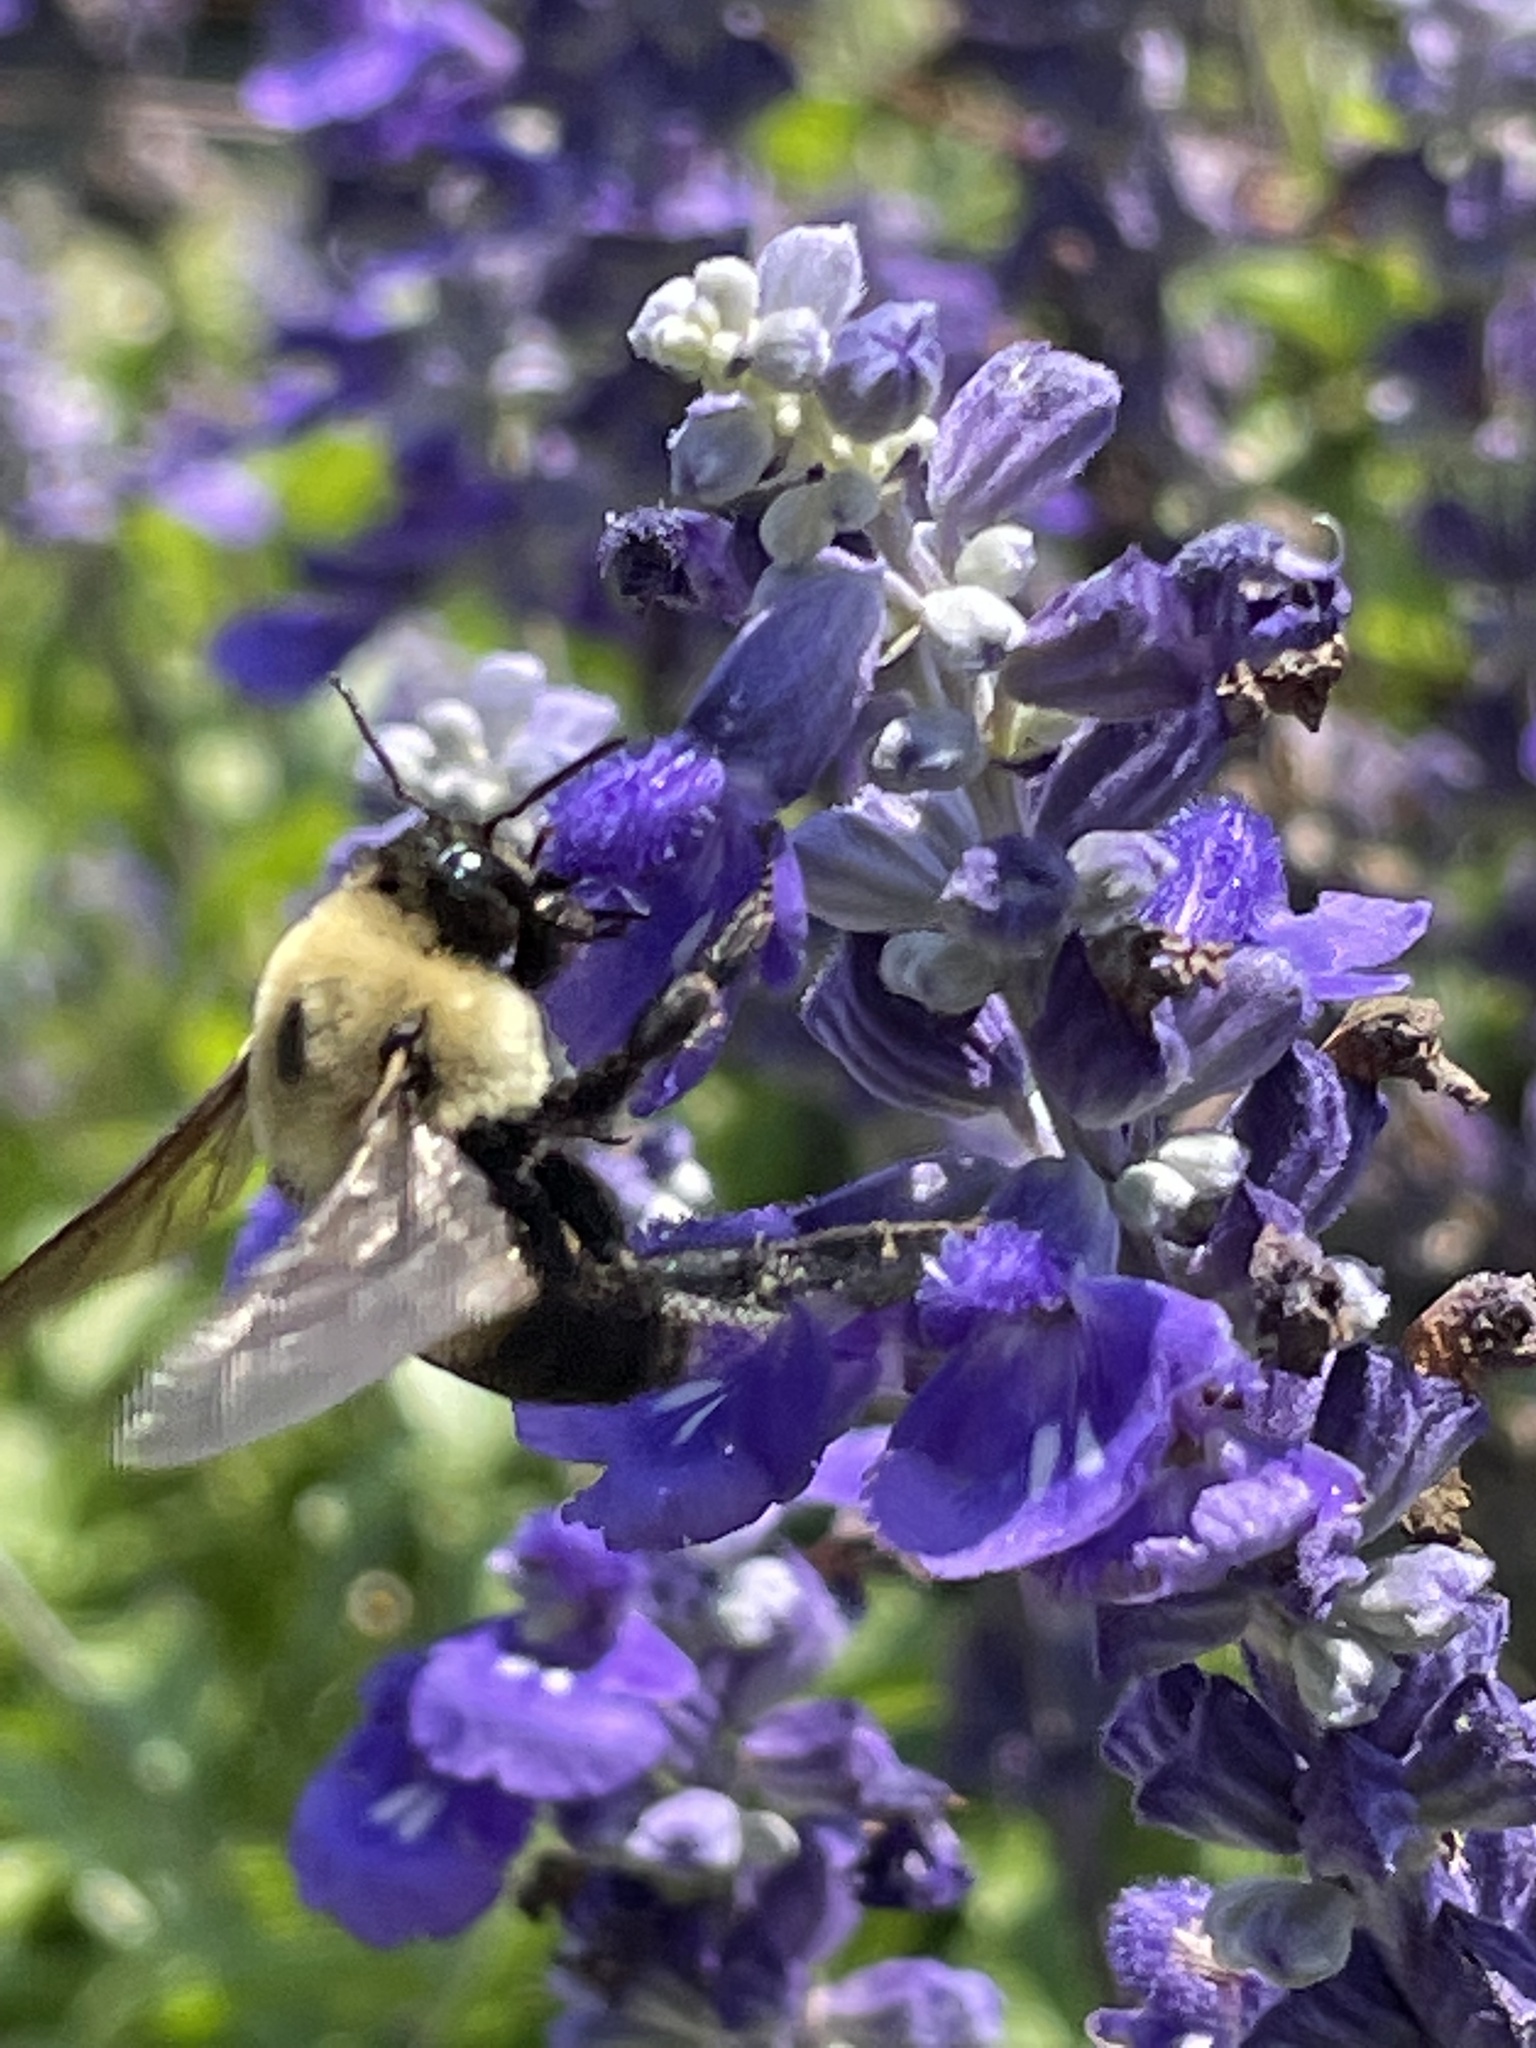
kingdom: Animalia
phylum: Arthropoda
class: Insecta
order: Hymenoptera
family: Apidae
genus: Bombus
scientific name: Bombus griseocollis
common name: Brown-belted bumble bee
